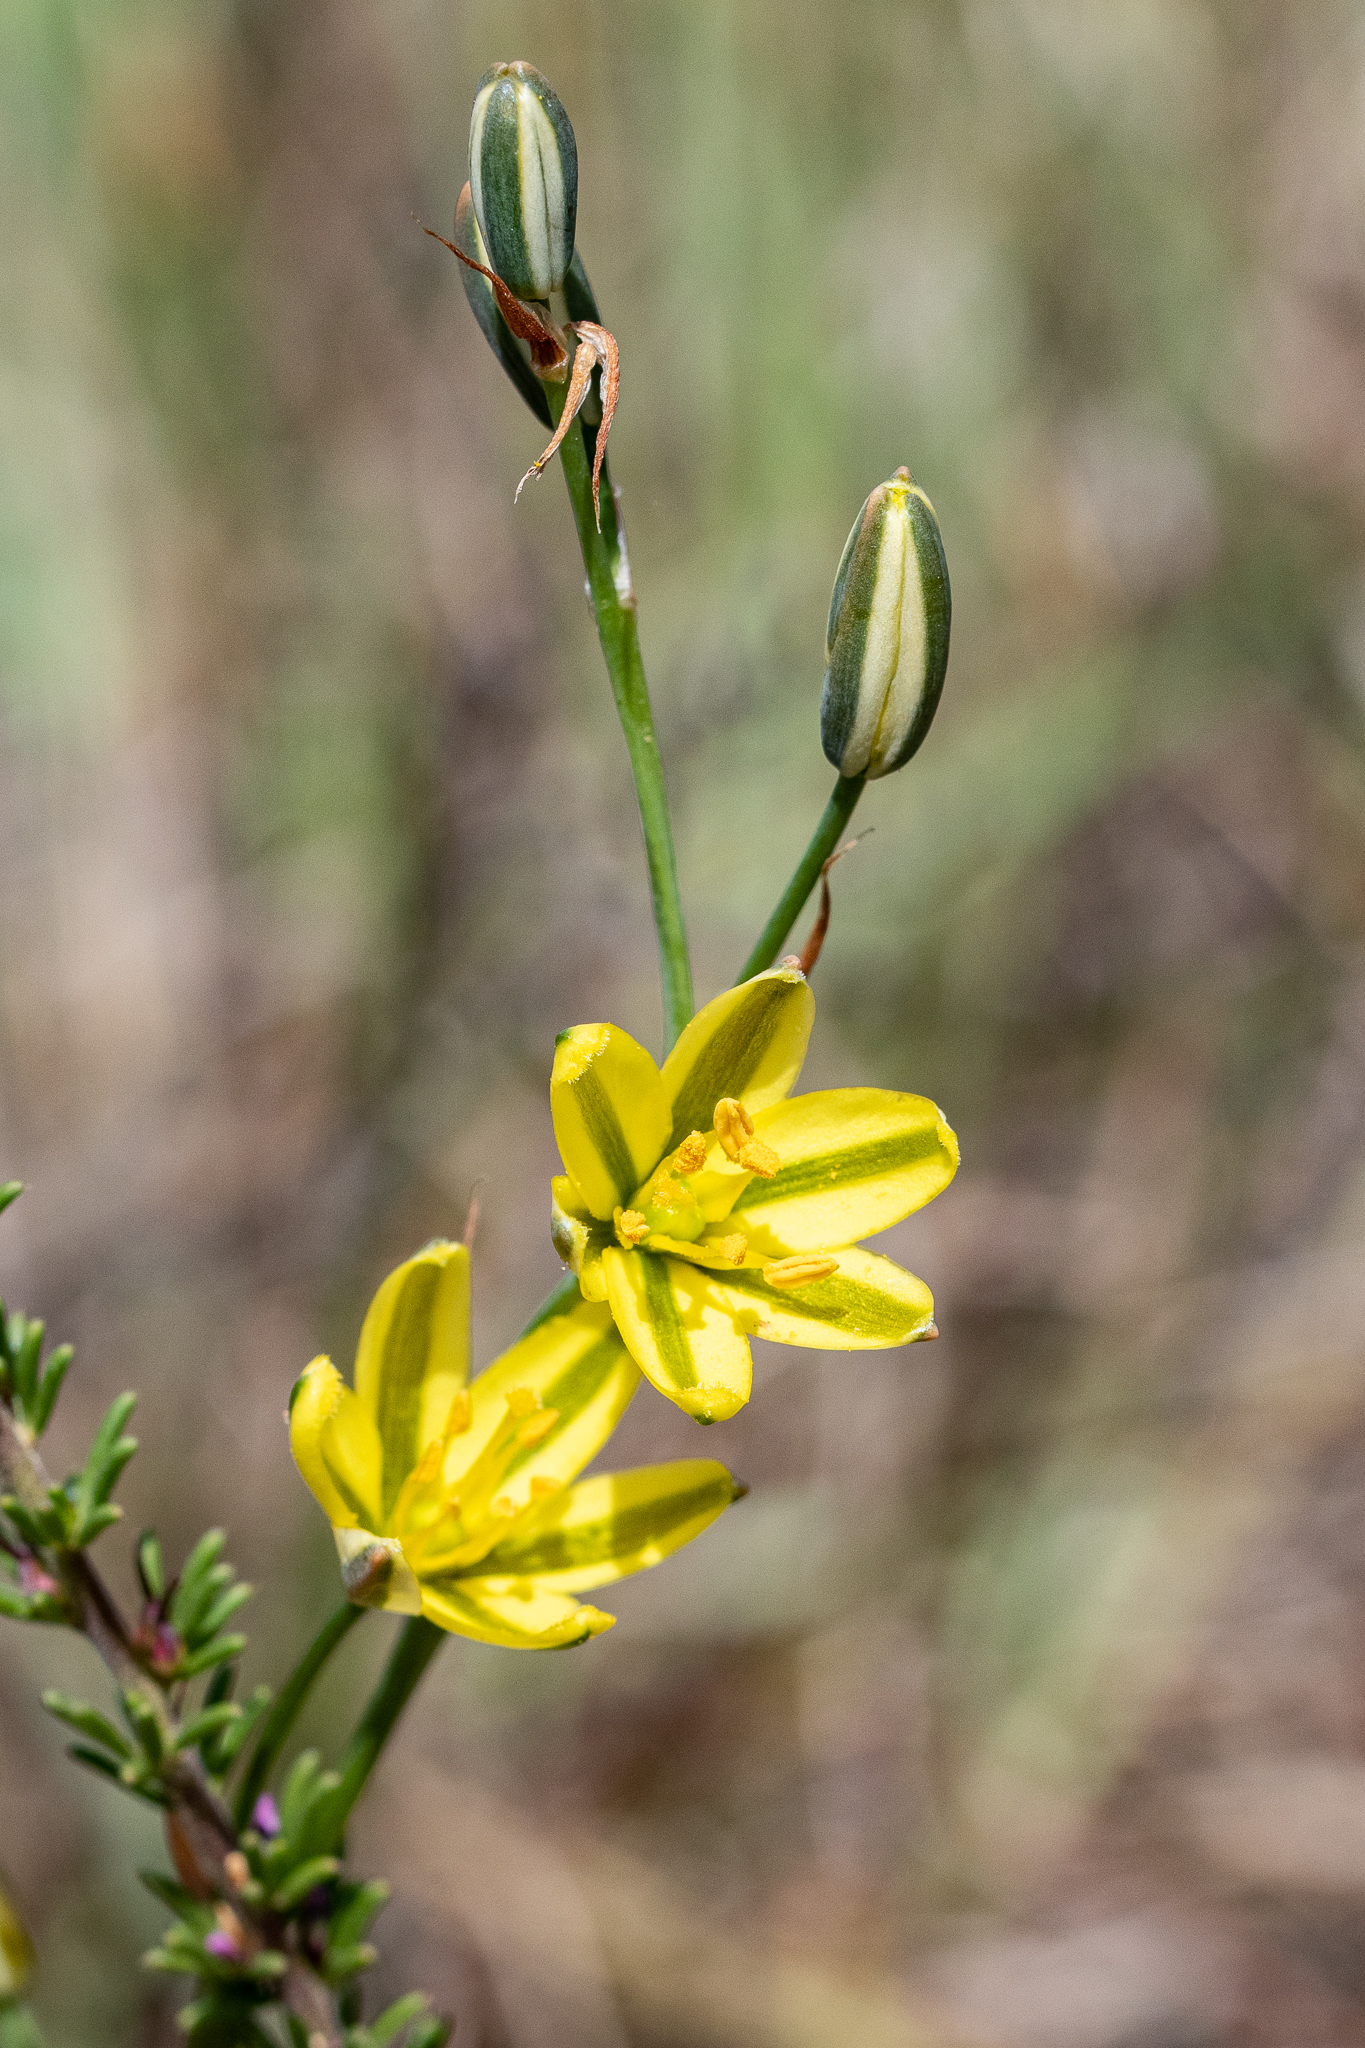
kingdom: Plantae
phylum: Tracheophyta
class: Liliopsida
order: Asparagales
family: Asparagaceae
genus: Albuca
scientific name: Albuca suaveolens
